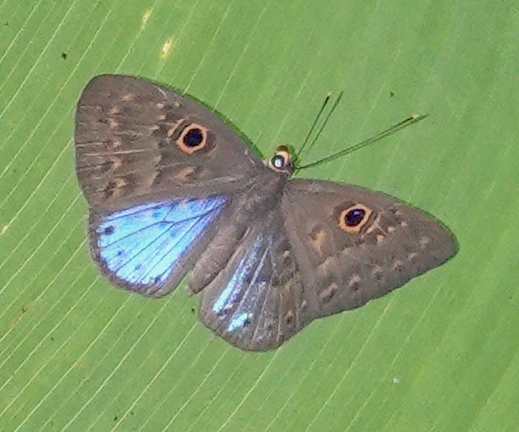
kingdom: Animalia
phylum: Cnidaria
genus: Eurybia
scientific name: Eurybia lycisca
